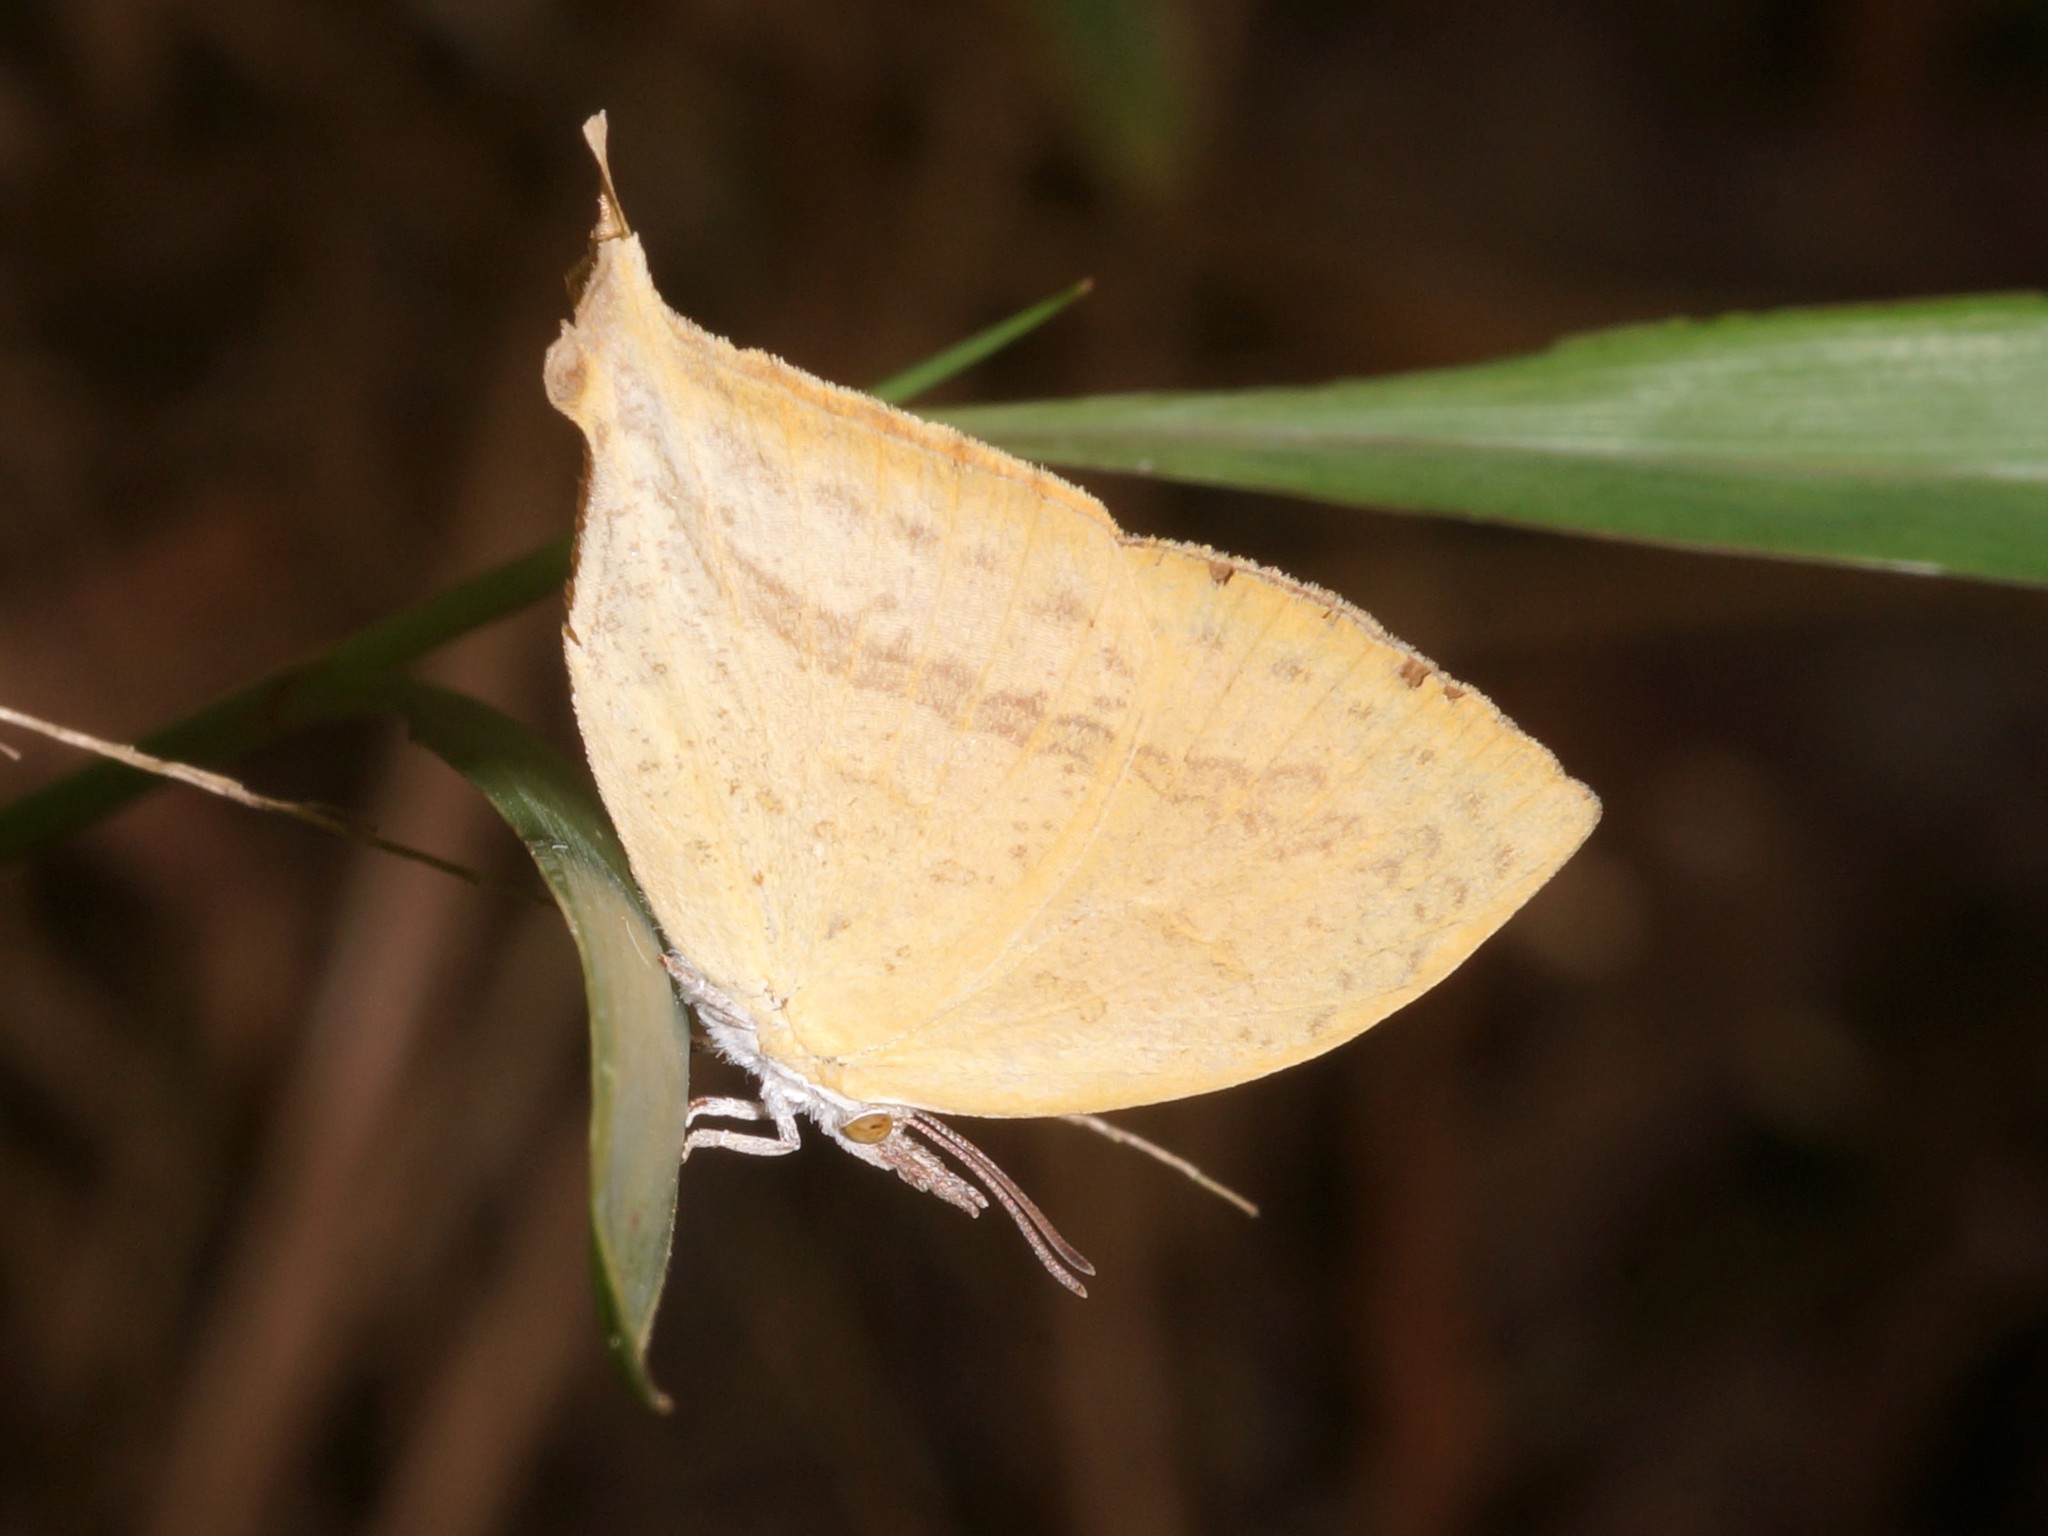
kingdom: Animalia
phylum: Arthropoda
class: Insecta
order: Lepidoptera
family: Lycaenidae
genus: Loxura
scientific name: Loxura atymnus
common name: Common yamfly
